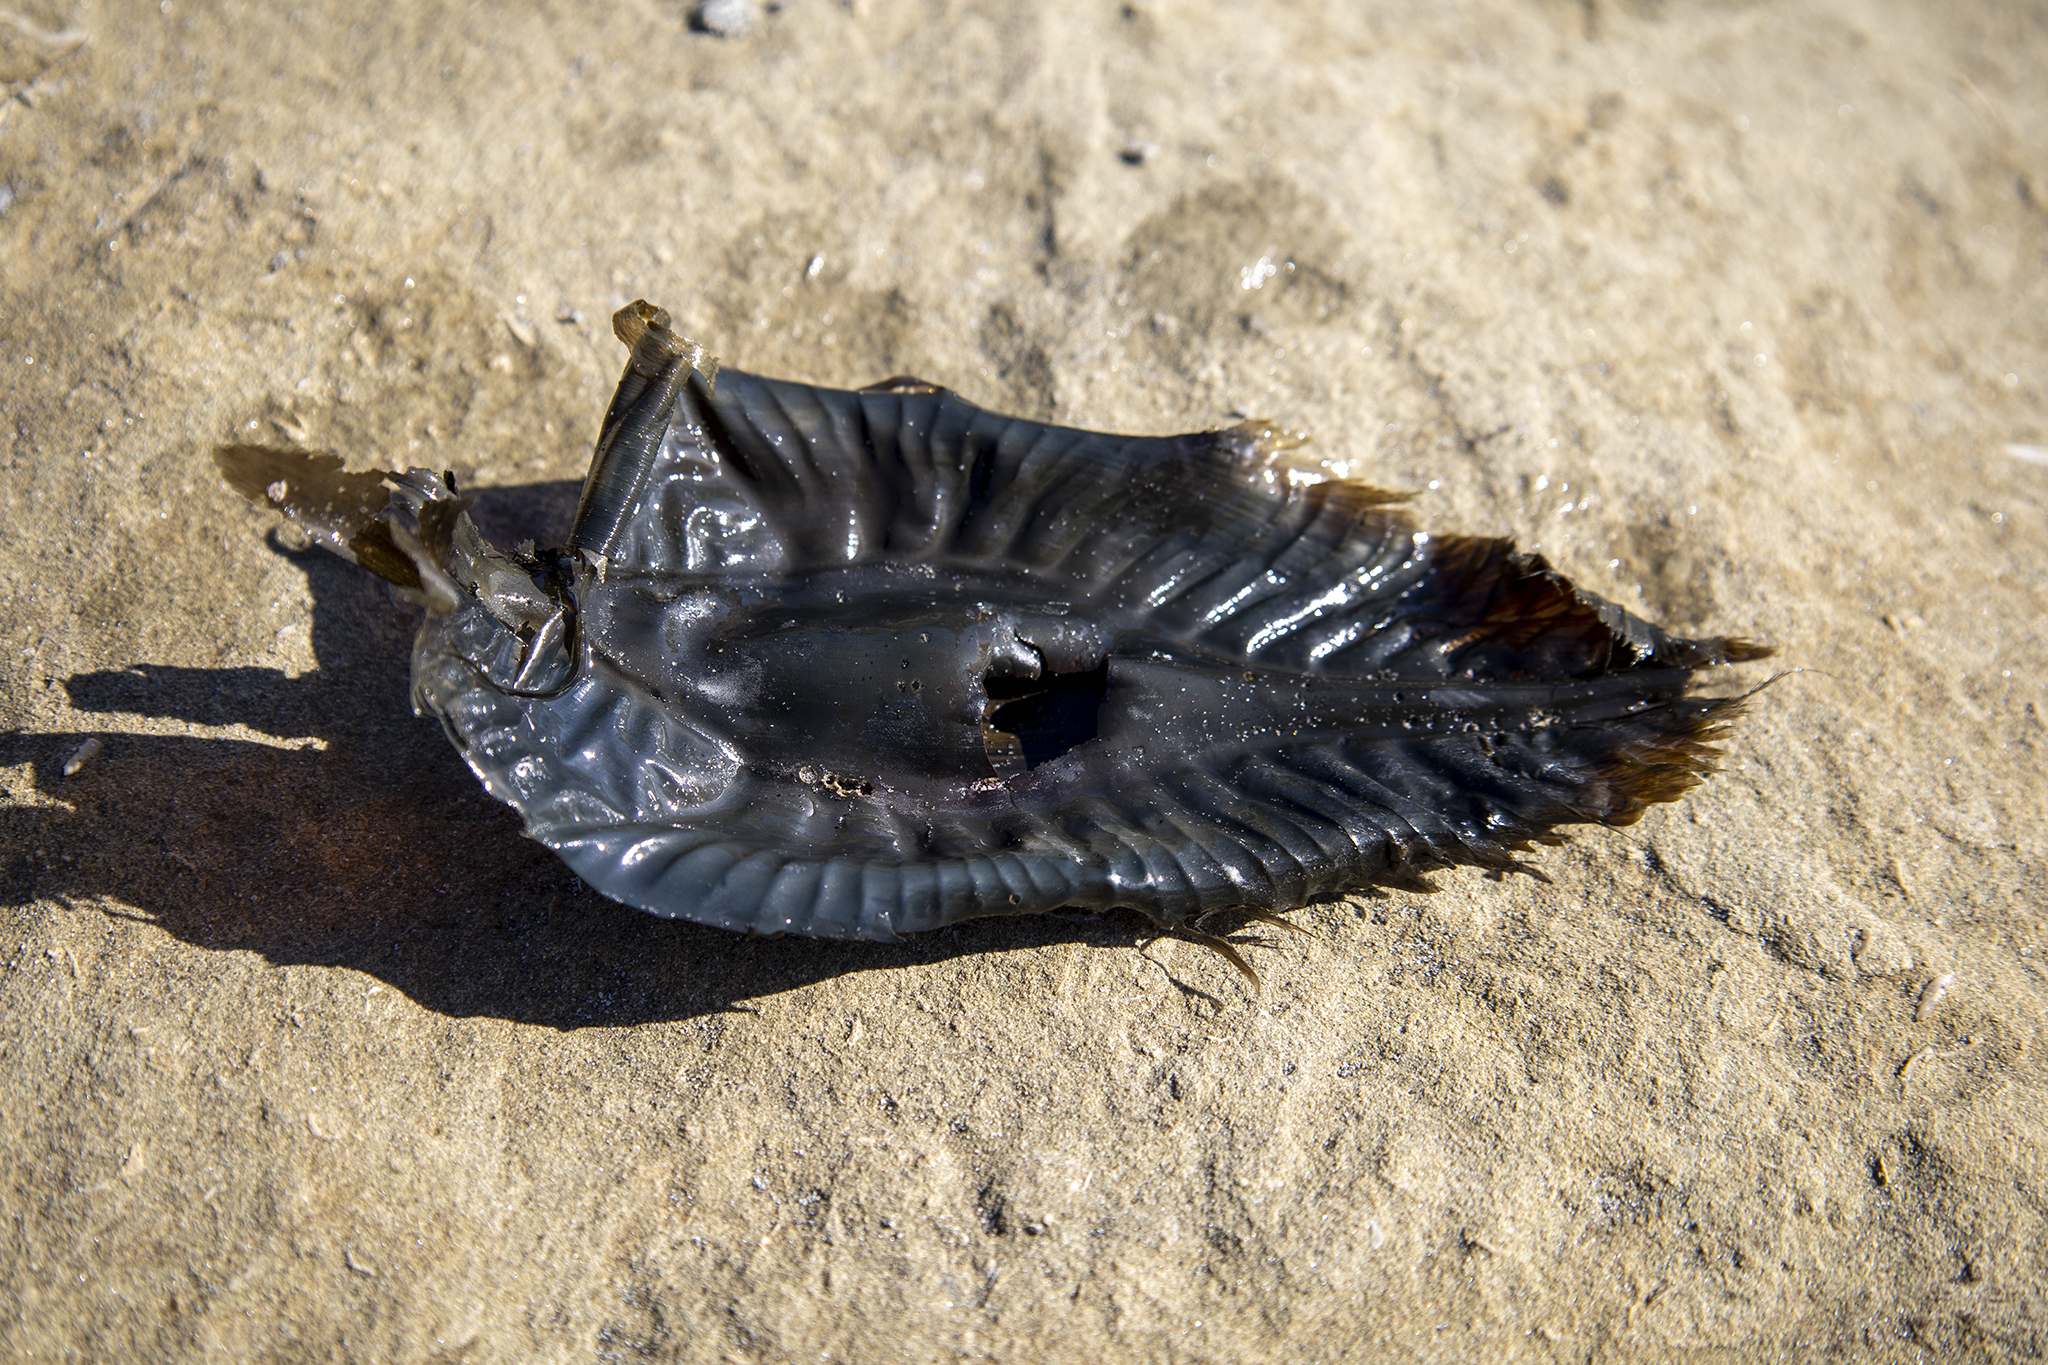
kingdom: Animalia
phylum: Chordata
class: Holocephali
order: Chimaeriformes
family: Callorhinchidae
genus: Callorhinchus
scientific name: Callorhinchus milii
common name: Elephant fish
